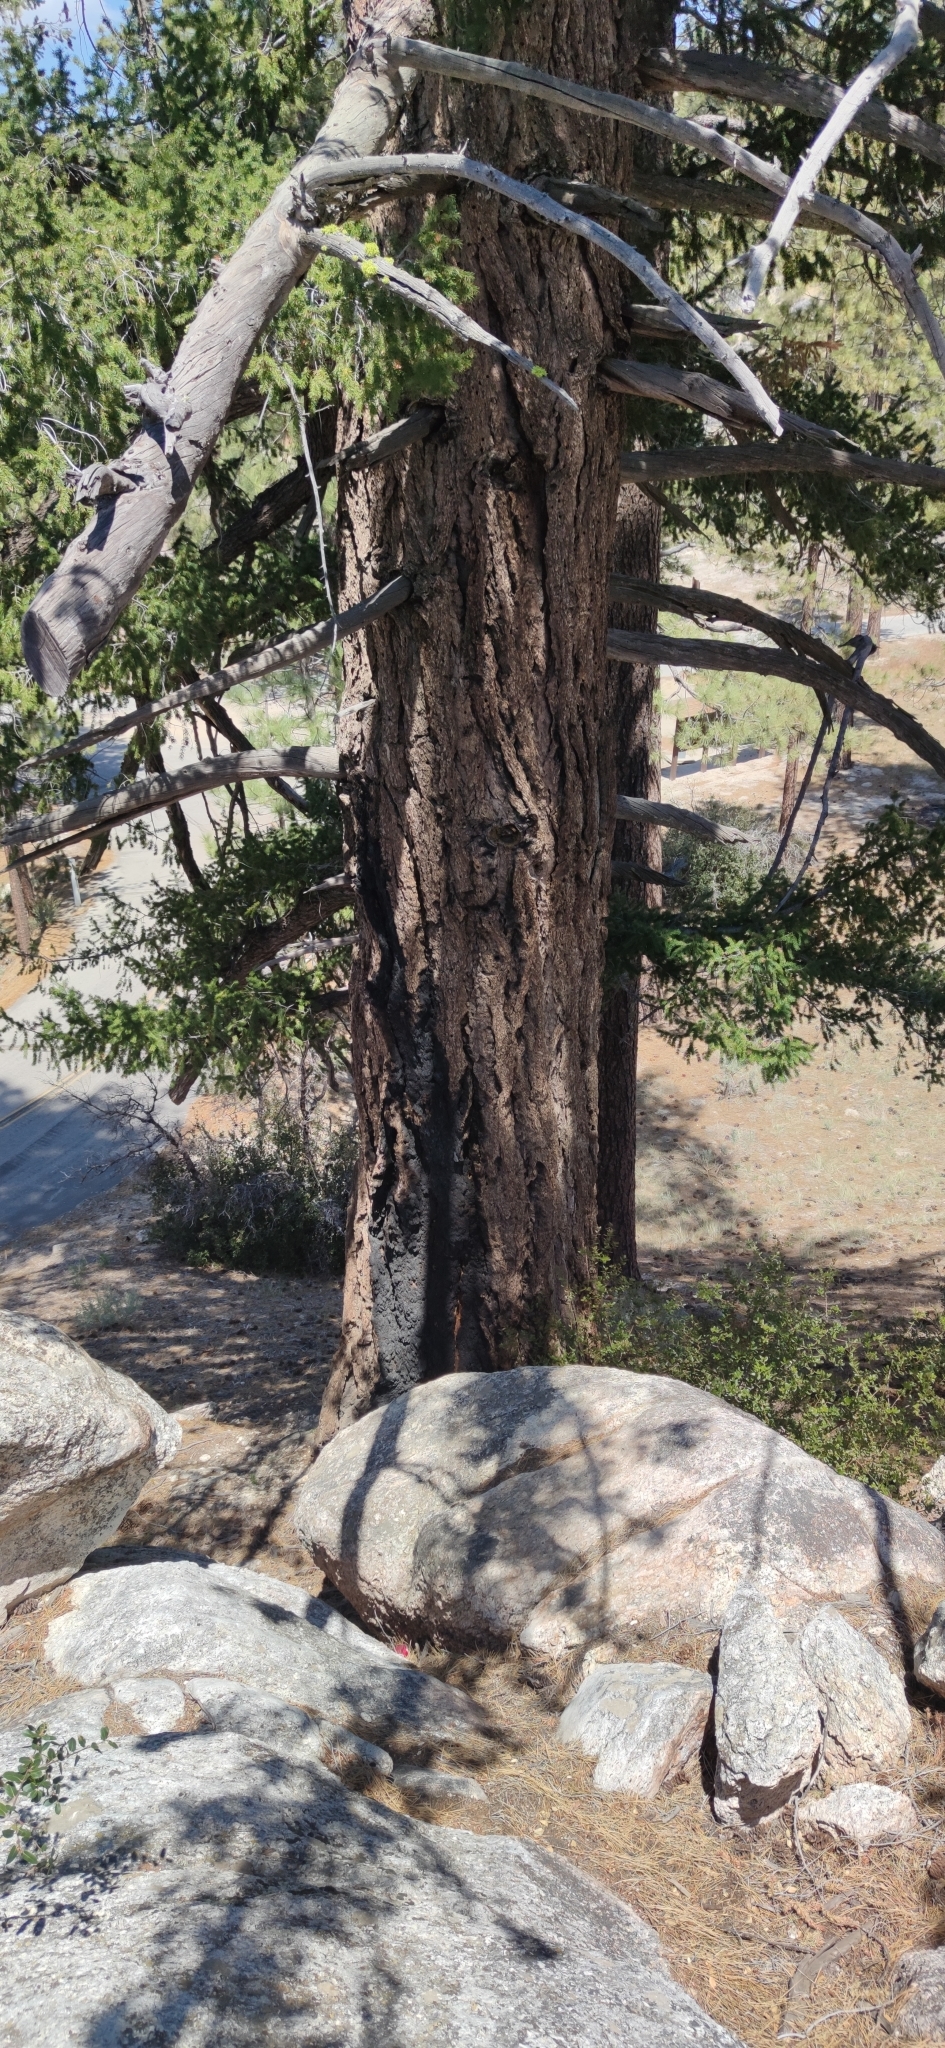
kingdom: Plantae
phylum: Tracheophyta
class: Pinopsida
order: Pinales
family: Pinaceae
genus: Pseudotsuga
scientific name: Pseudotsuga macrocarpa
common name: Big-cone douglas-fir
